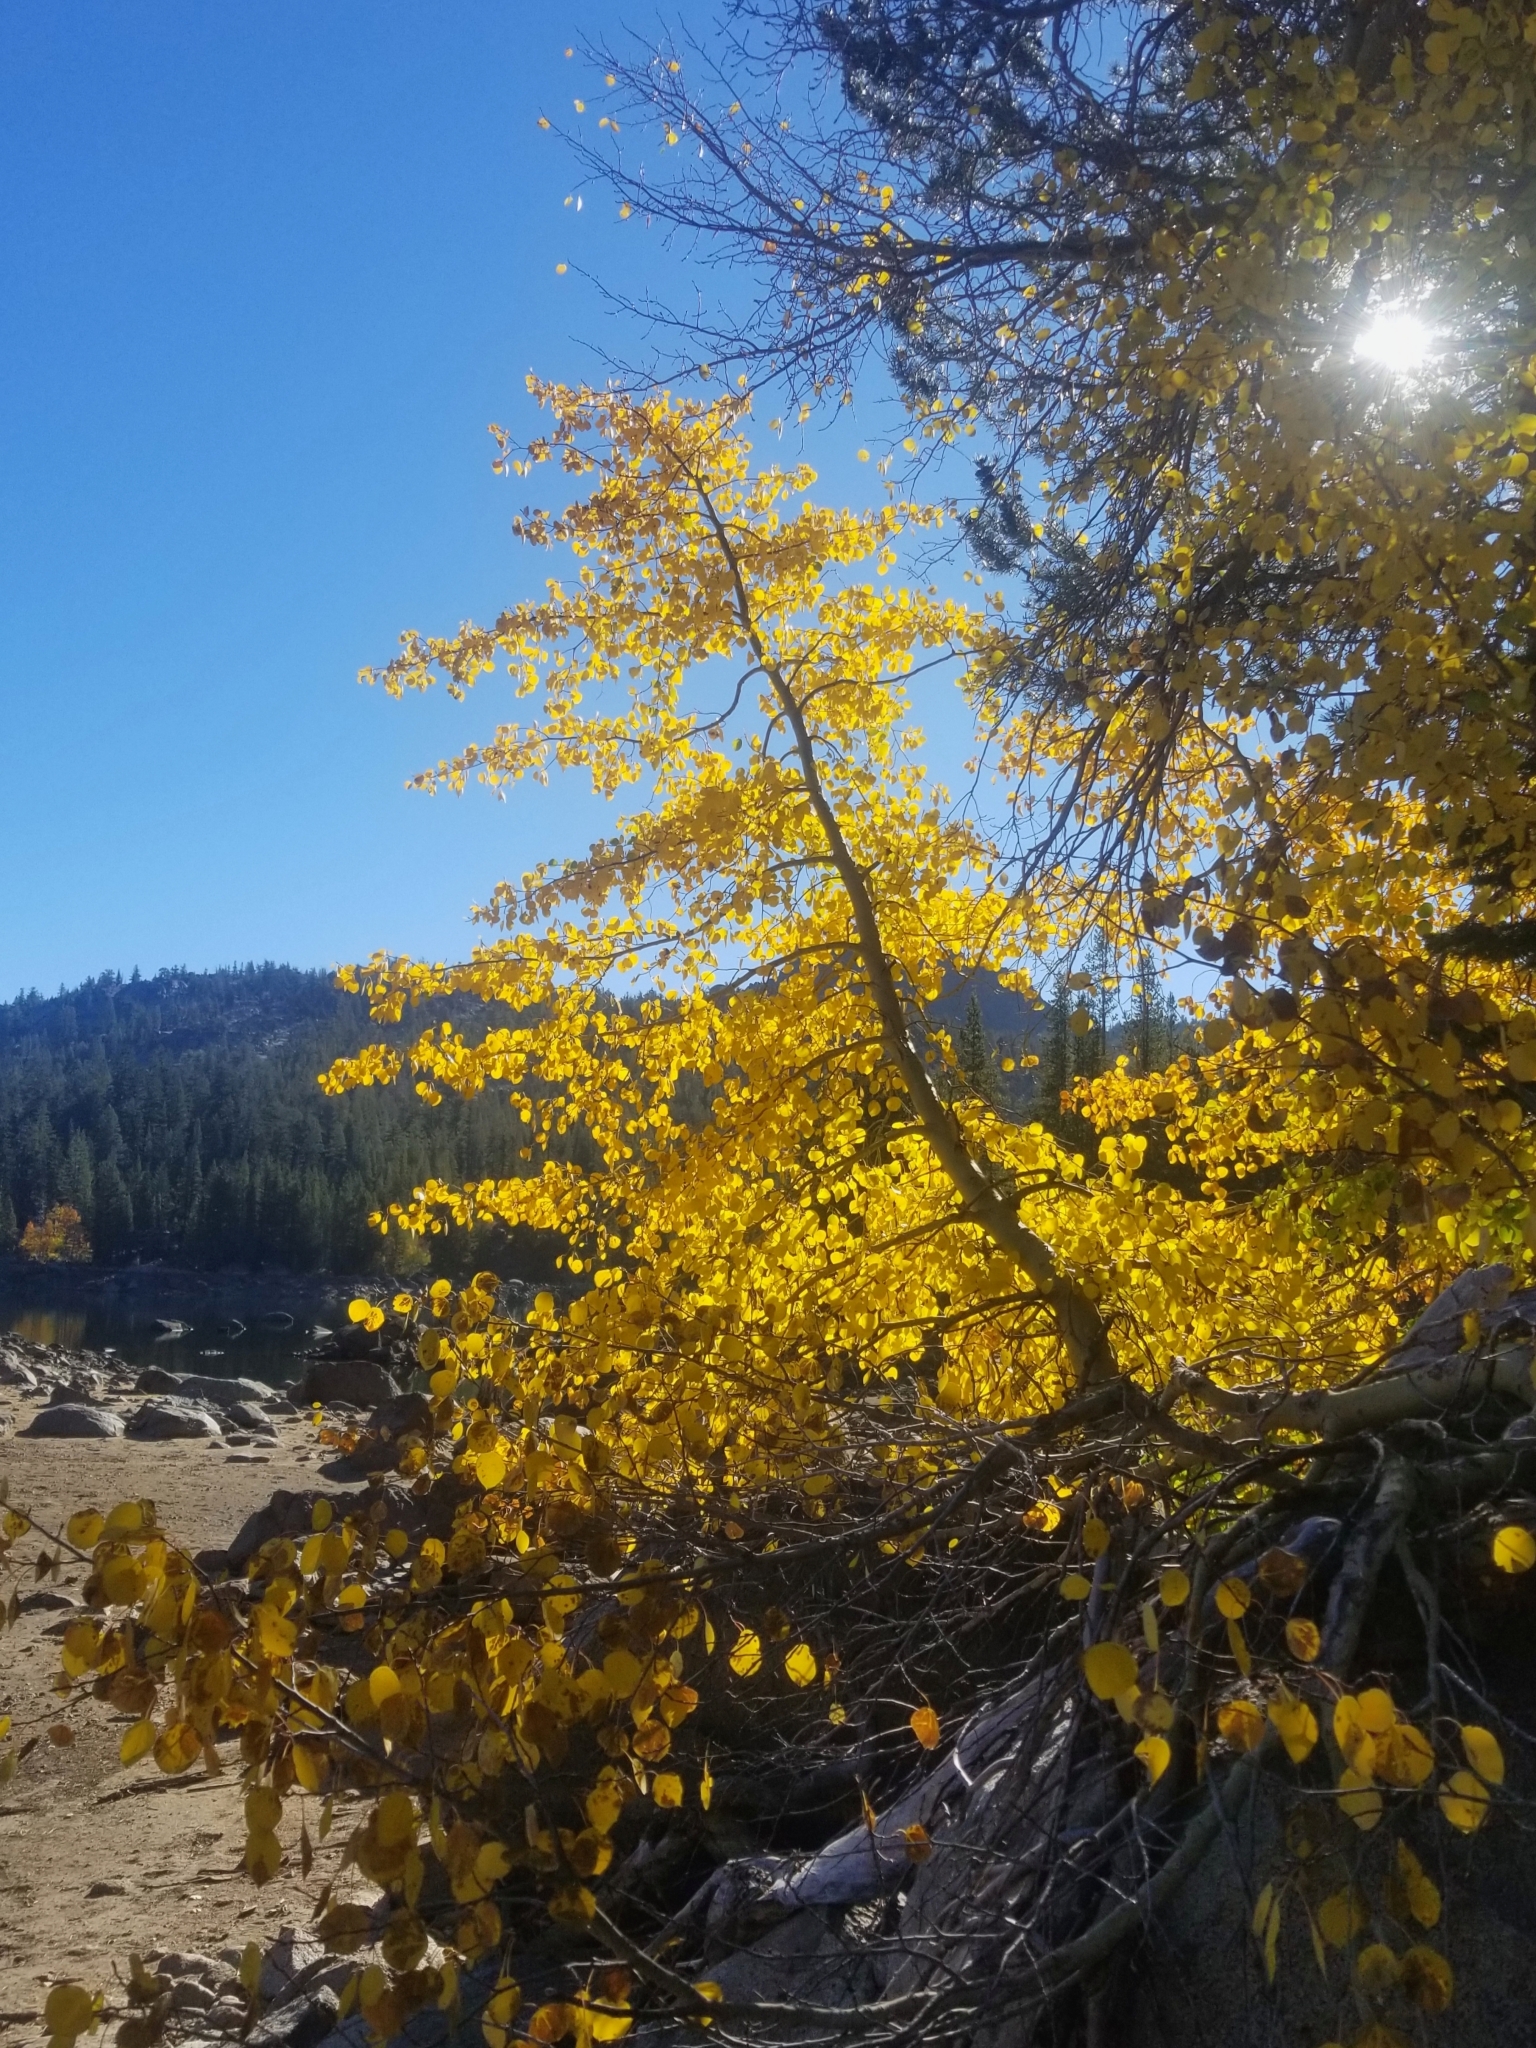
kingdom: Plantae
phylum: Tracheophyta
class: Magnoliopsida
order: Malpighiales
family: Salicaceae
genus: Populus
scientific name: Populus tremuloides
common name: Quaking aspen
